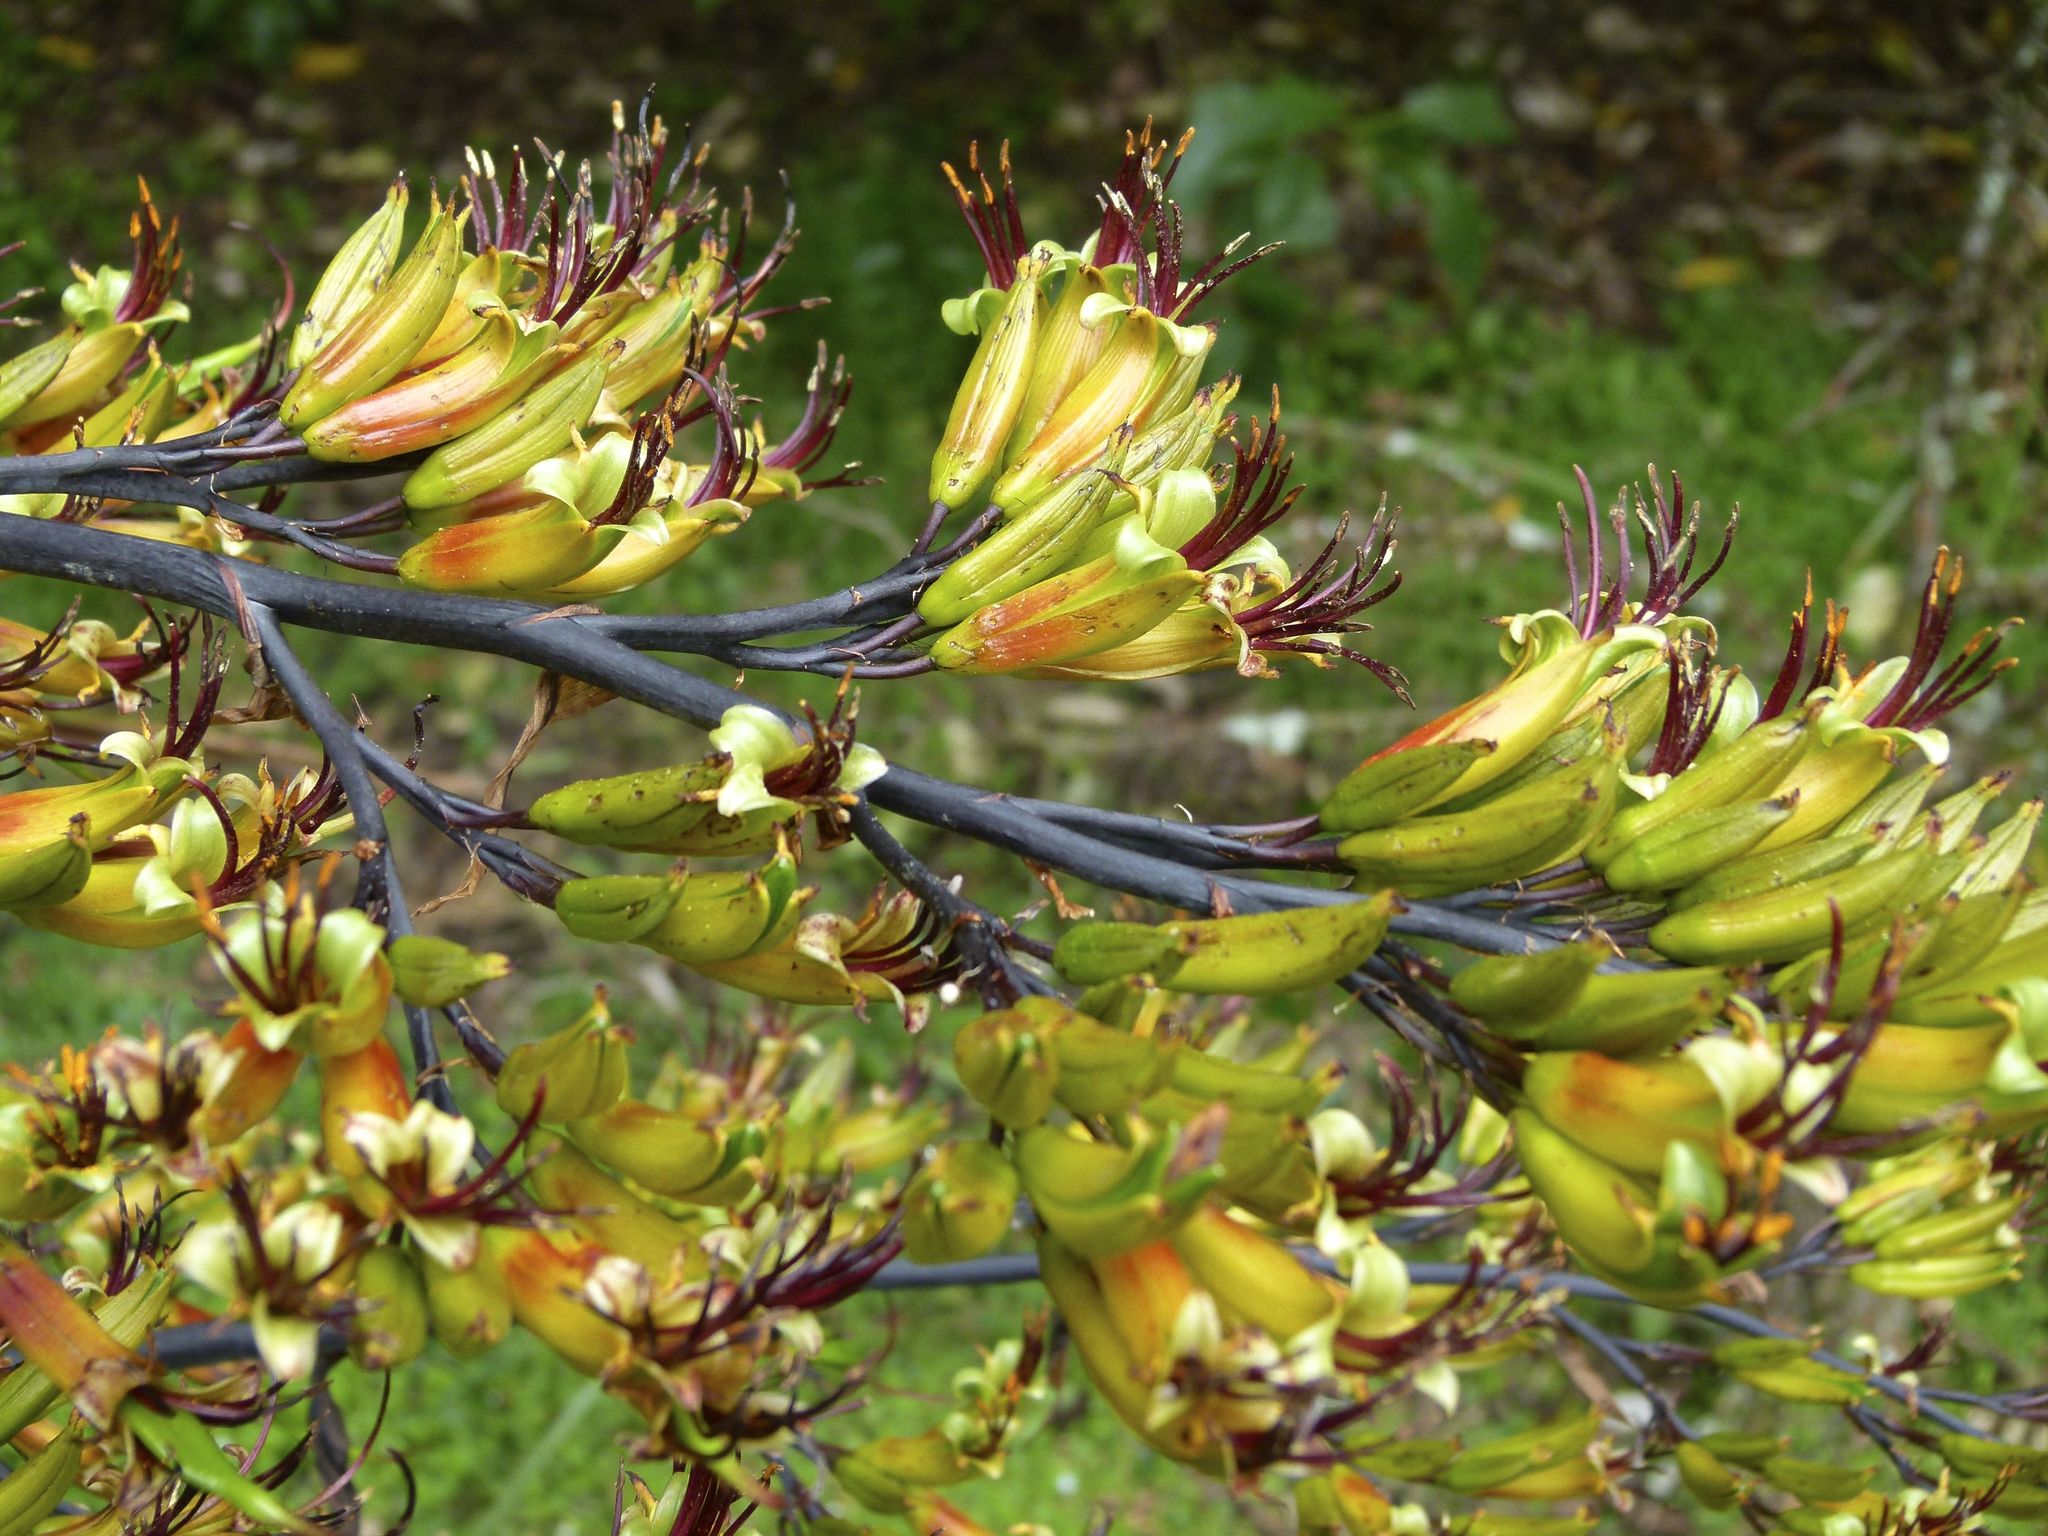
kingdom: Plantae
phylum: Tracheophyta
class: Liliopsida
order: Asparagales
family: Asphodelaceae
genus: Phormium
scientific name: Phormium colensoi
